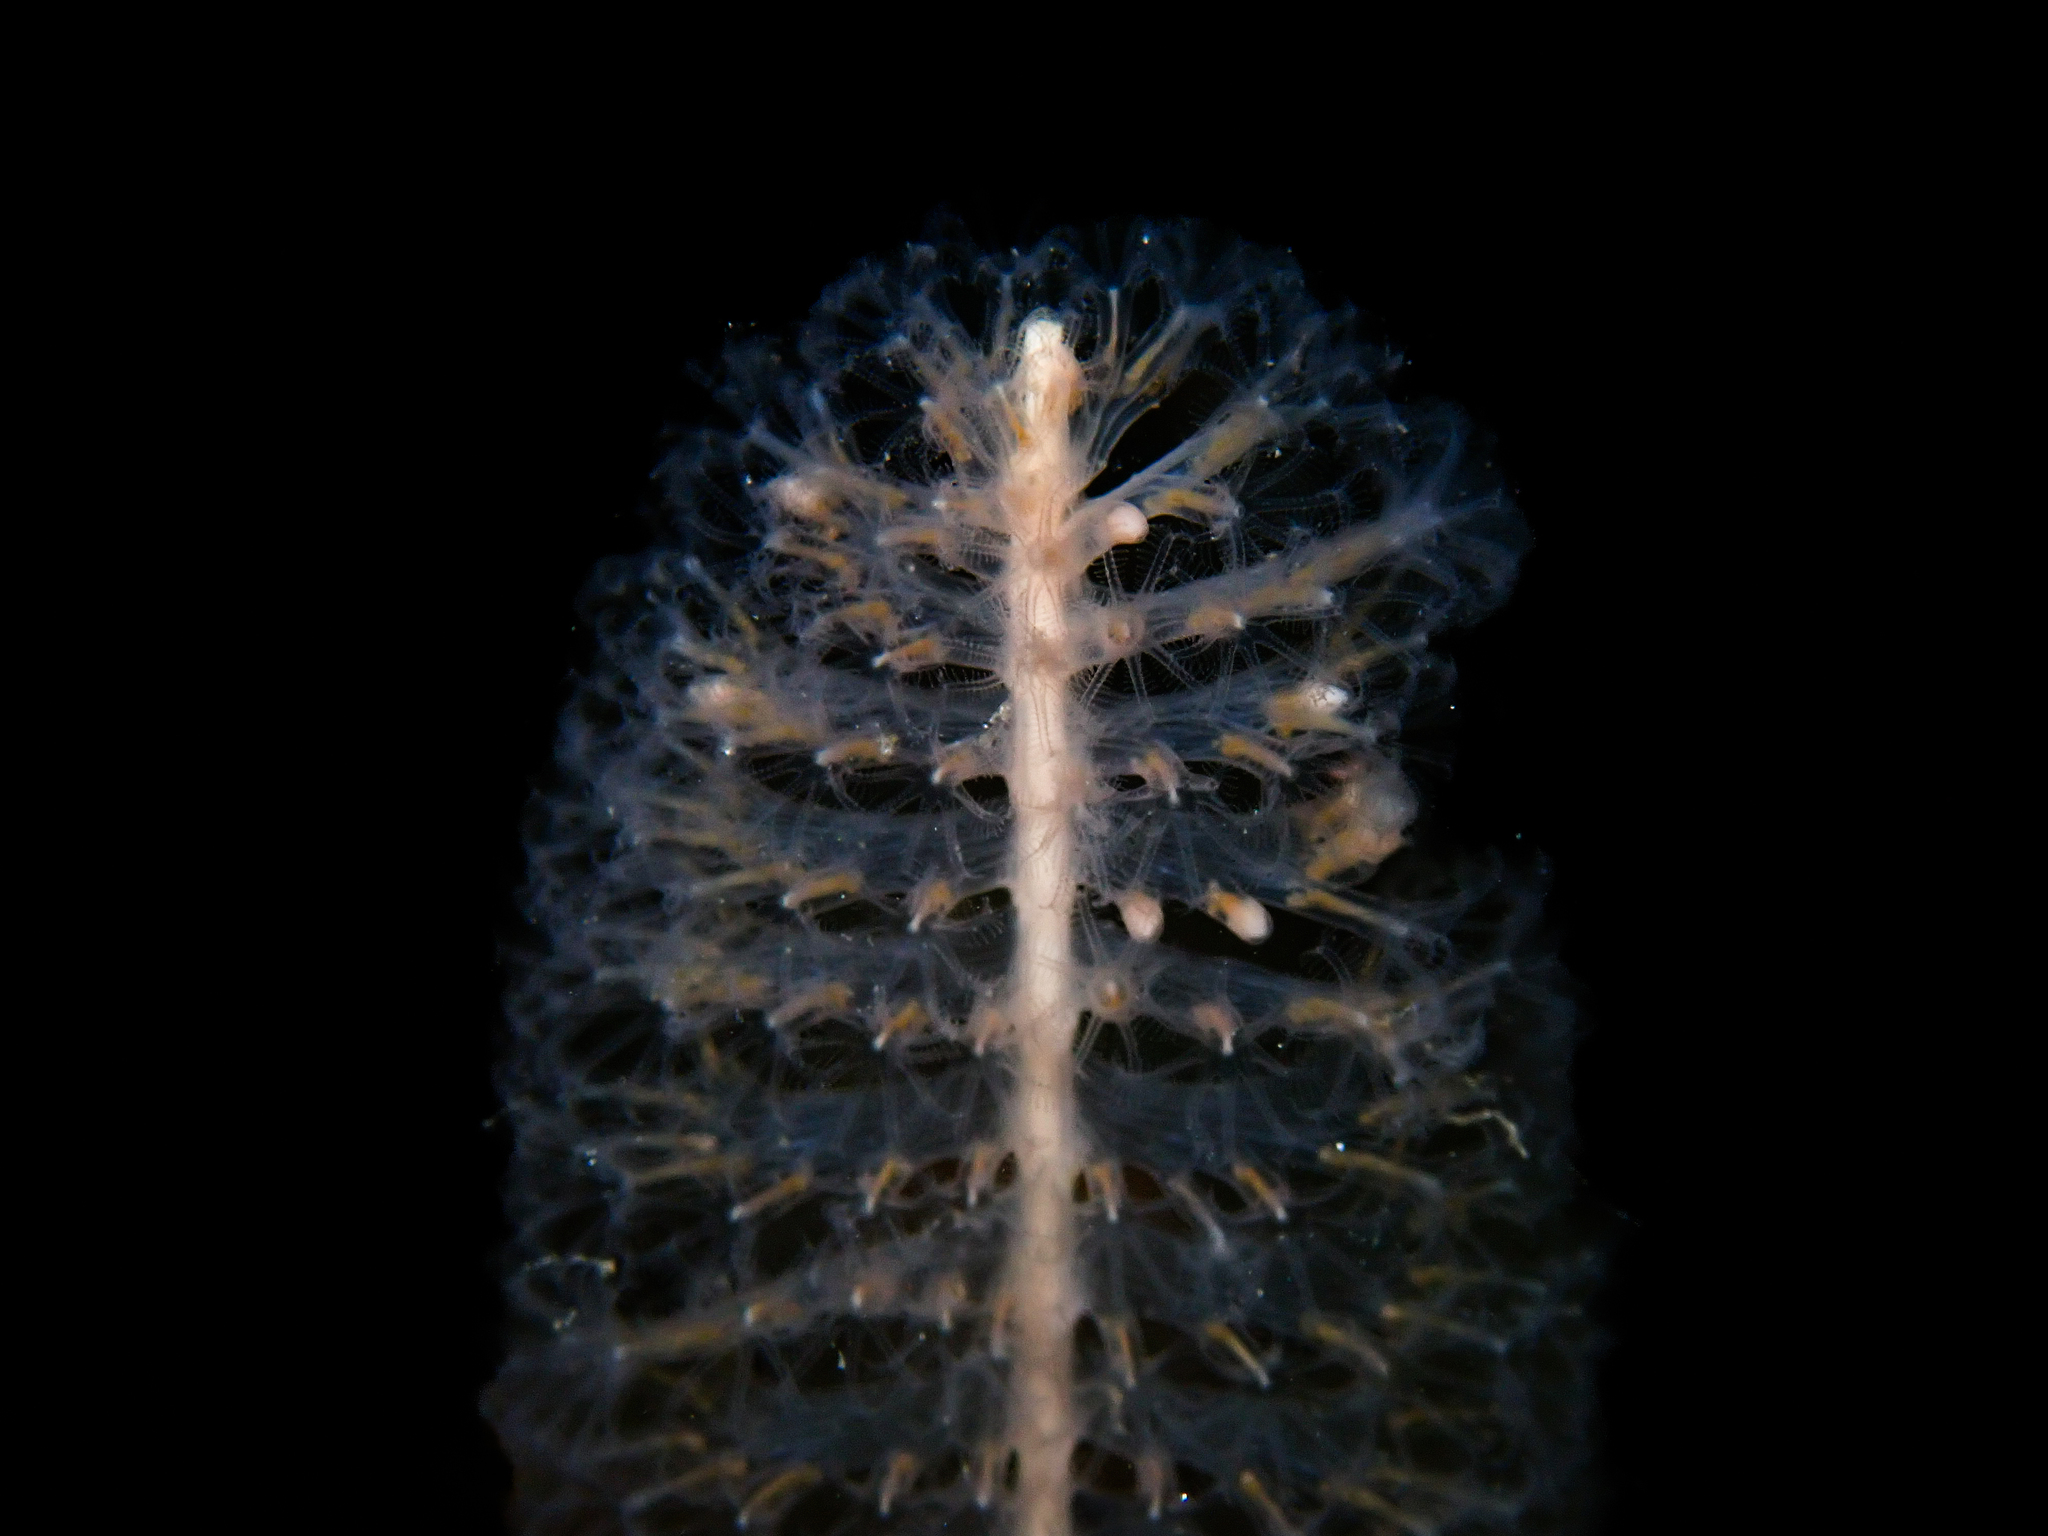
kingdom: Animalia
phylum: Cnidaria
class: Anthozoa
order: Scleralcyonacea
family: Virgulariidae
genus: Virgularia
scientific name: Virgularia mirabilis
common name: Slender sea pen
